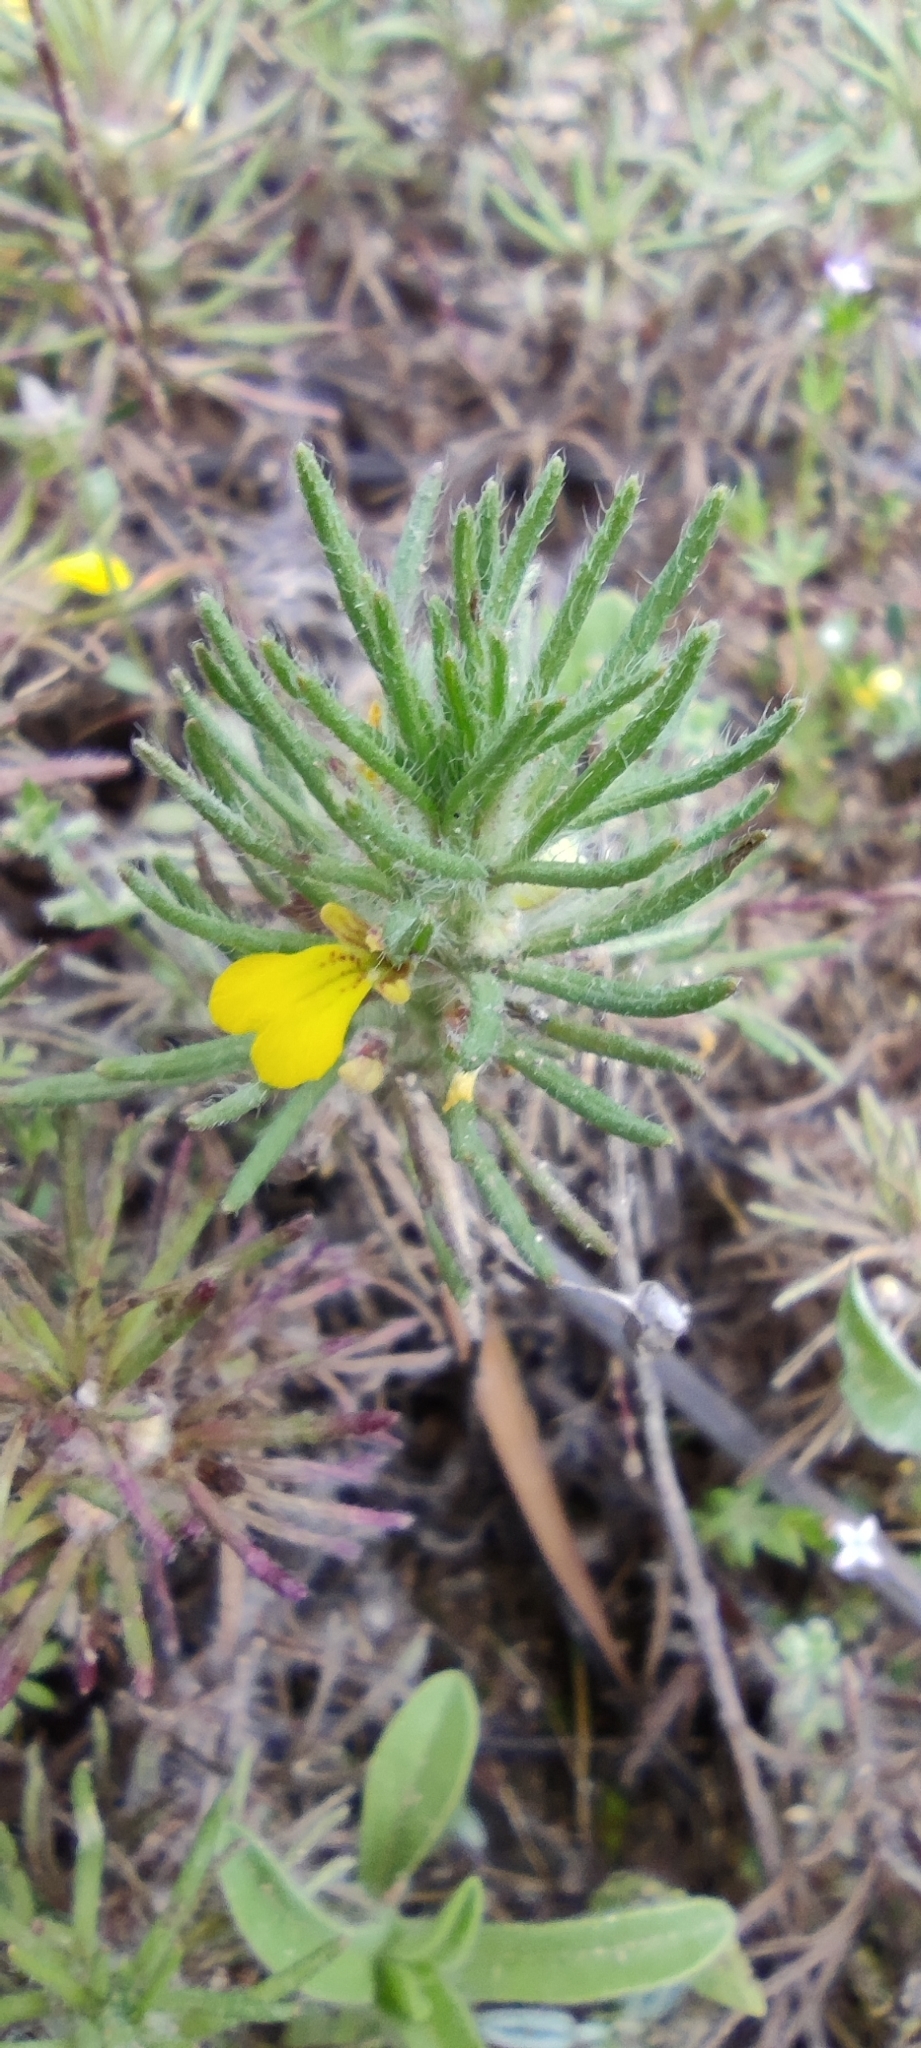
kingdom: Plantae
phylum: Tracheophyta
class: Magnoliopsida
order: Lamiales
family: Lamiaceae
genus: Ajuga
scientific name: Ajuga chamaepitys
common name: Ground-pine
